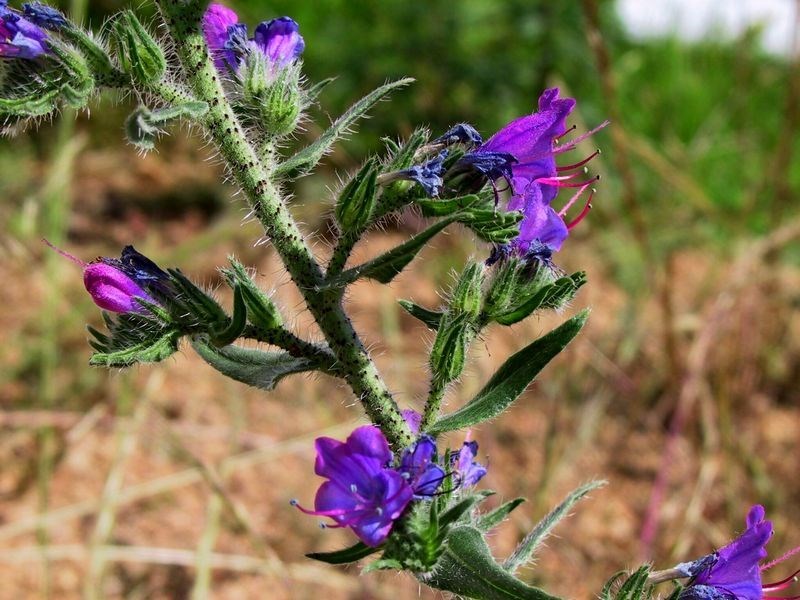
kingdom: Plantae
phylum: Tracheophyta
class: Magnoliopsida
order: Boraginales
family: Boraginaceae
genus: Echium
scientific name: Echium vulgare
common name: Common viper's bugloss
